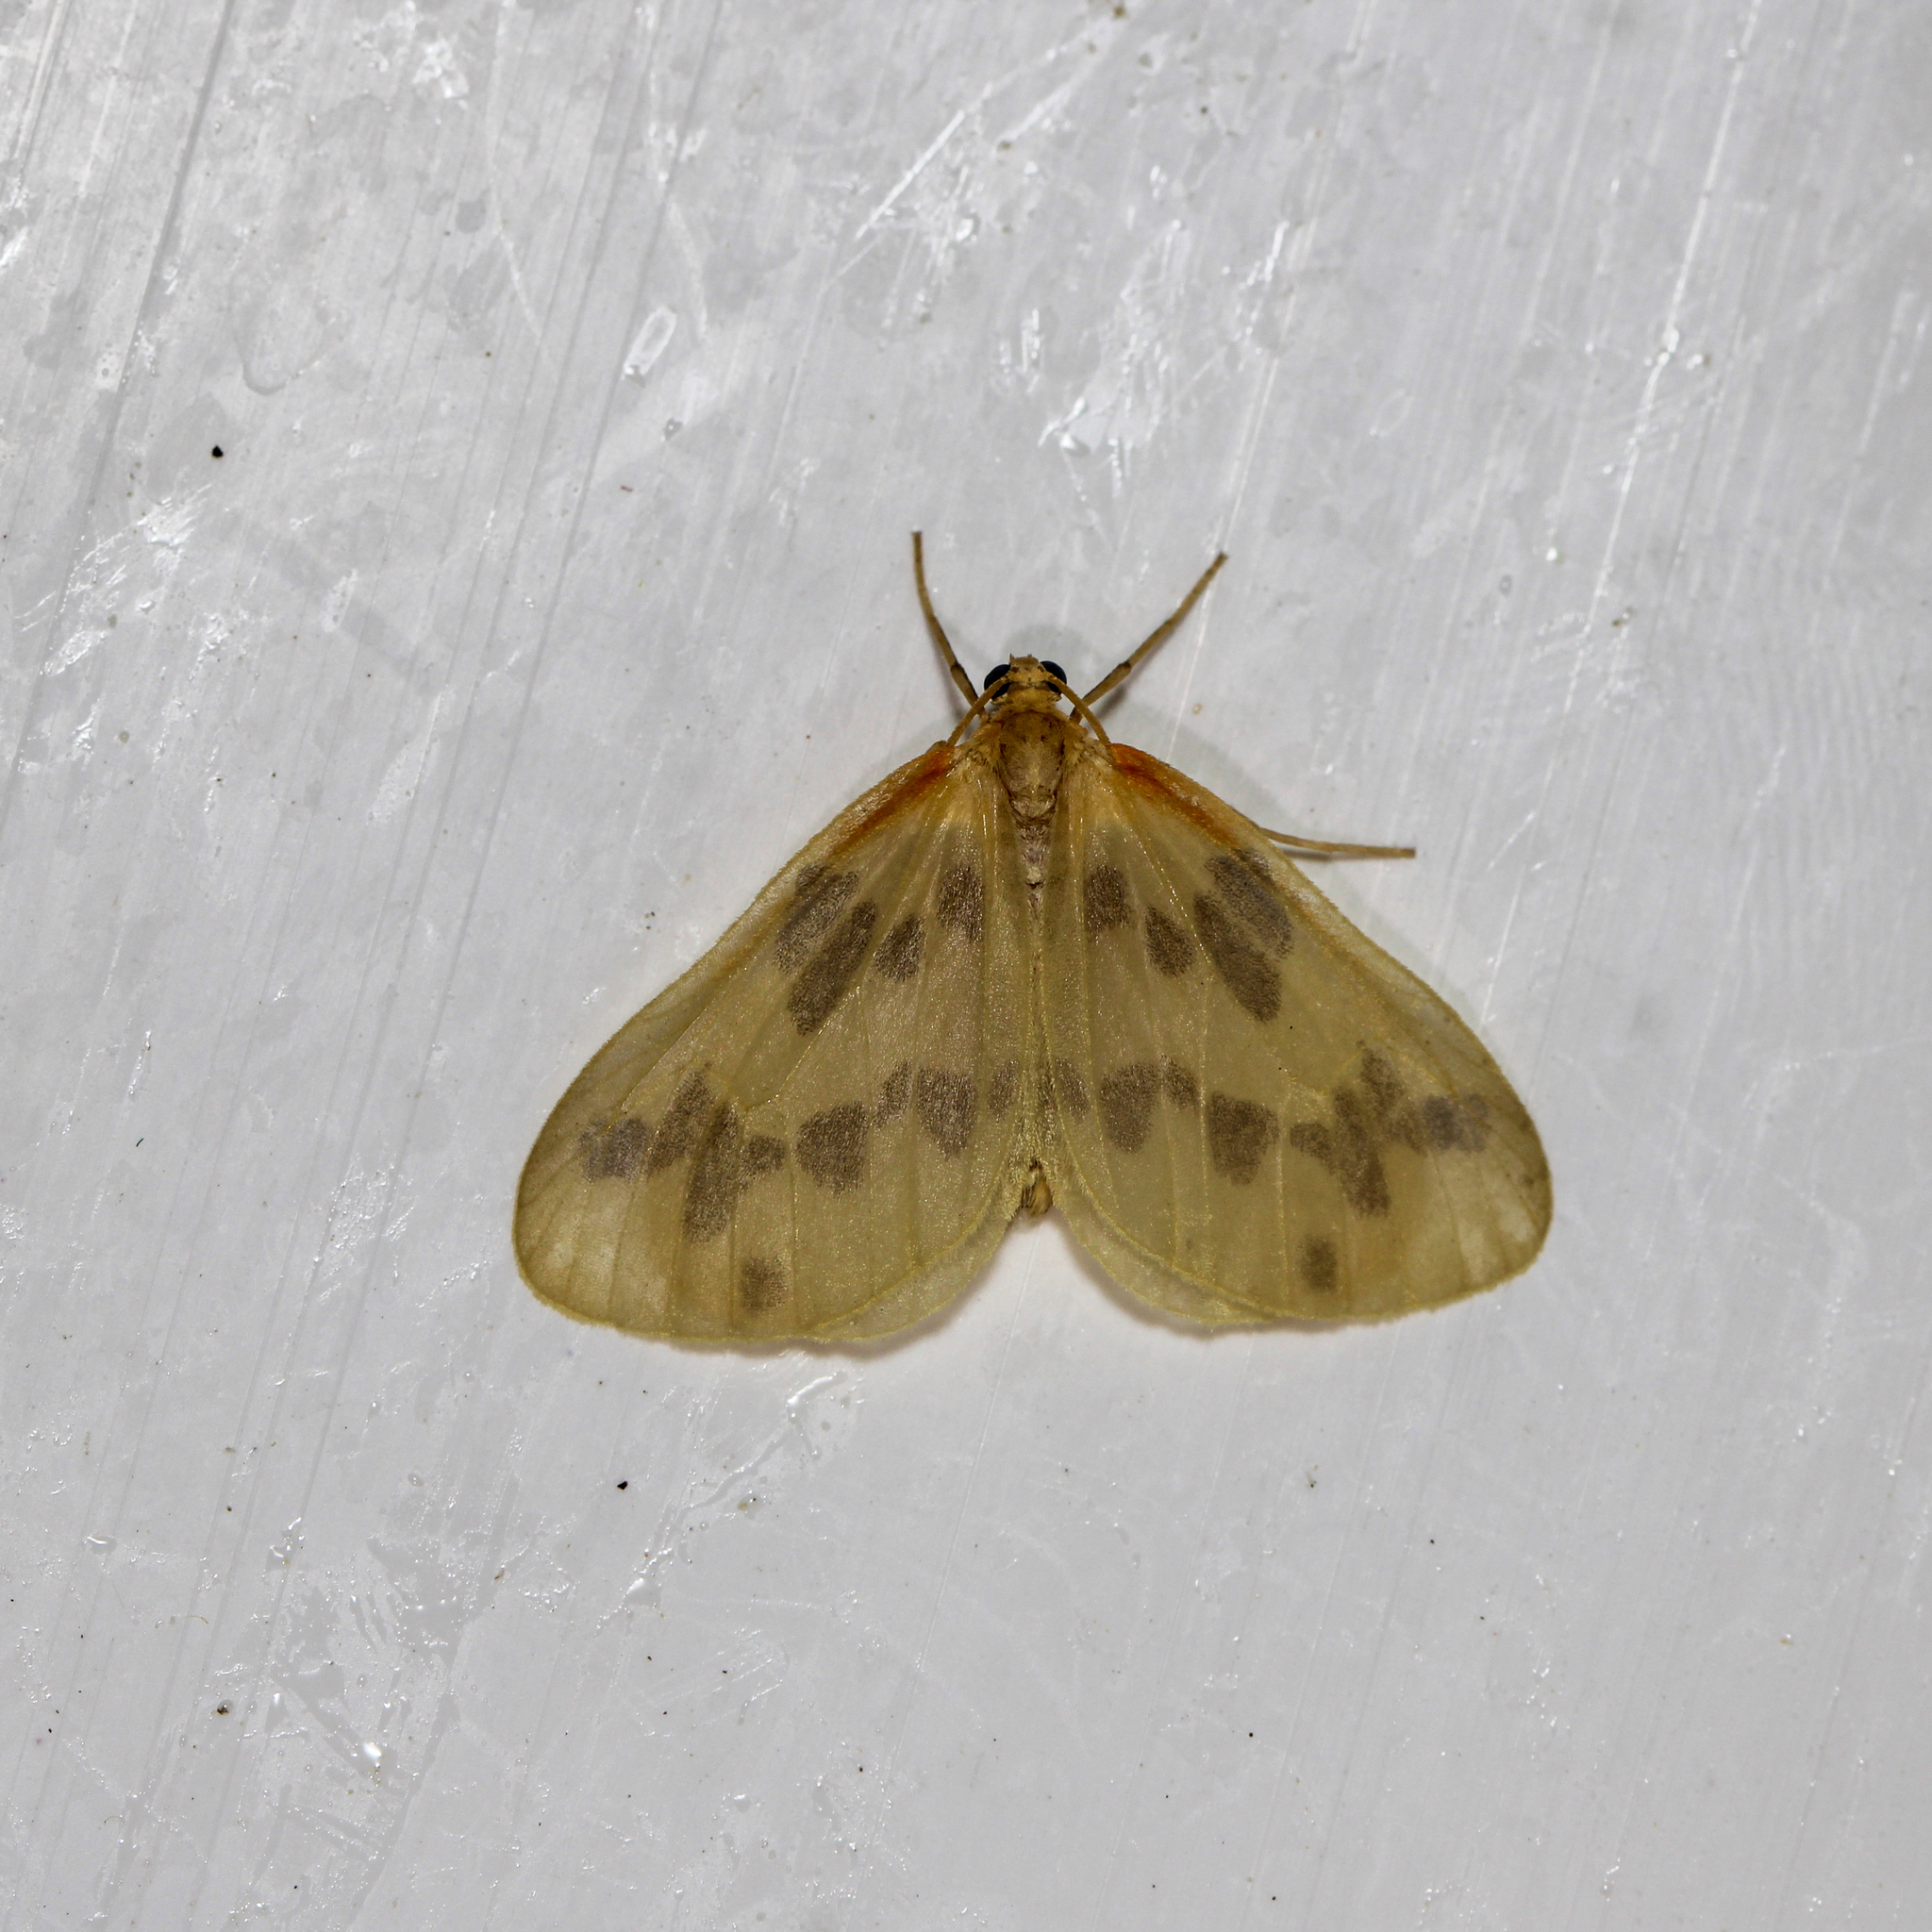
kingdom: Animalia
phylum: Arthropoda
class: Insecta
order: Lepidoptera
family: Geometridae
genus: Eubaphe
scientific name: Eubaphe mendica
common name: Beggar
